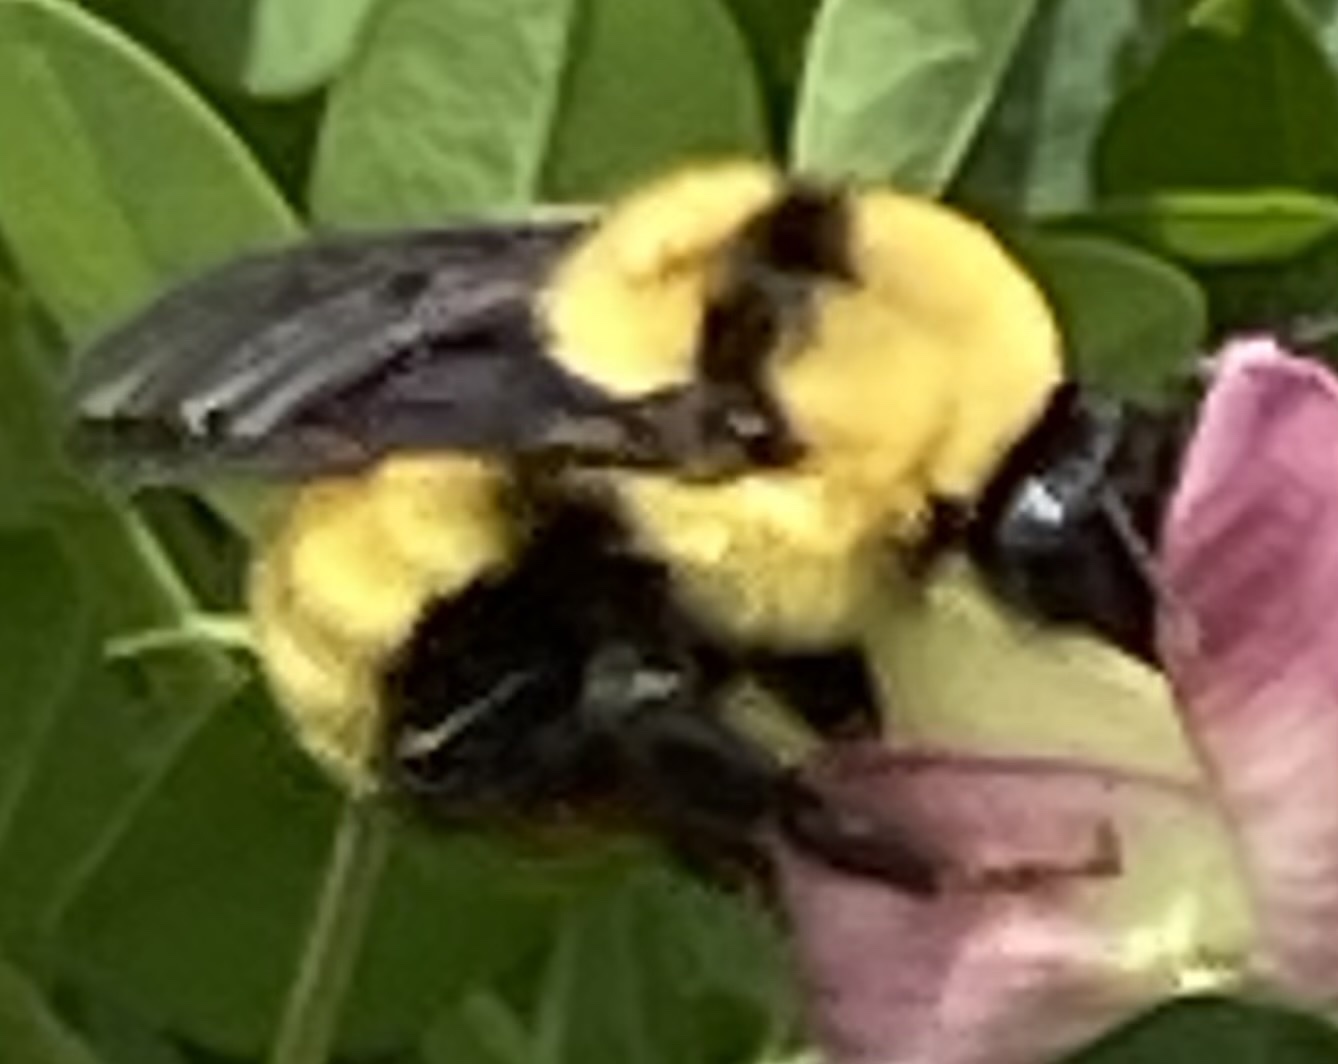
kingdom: Animalia
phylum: Arthropoda
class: Insecta
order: Hymenoptera
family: Apidae
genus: Bombus
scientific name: Bombus fervidus
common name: Yellow bumble bee
